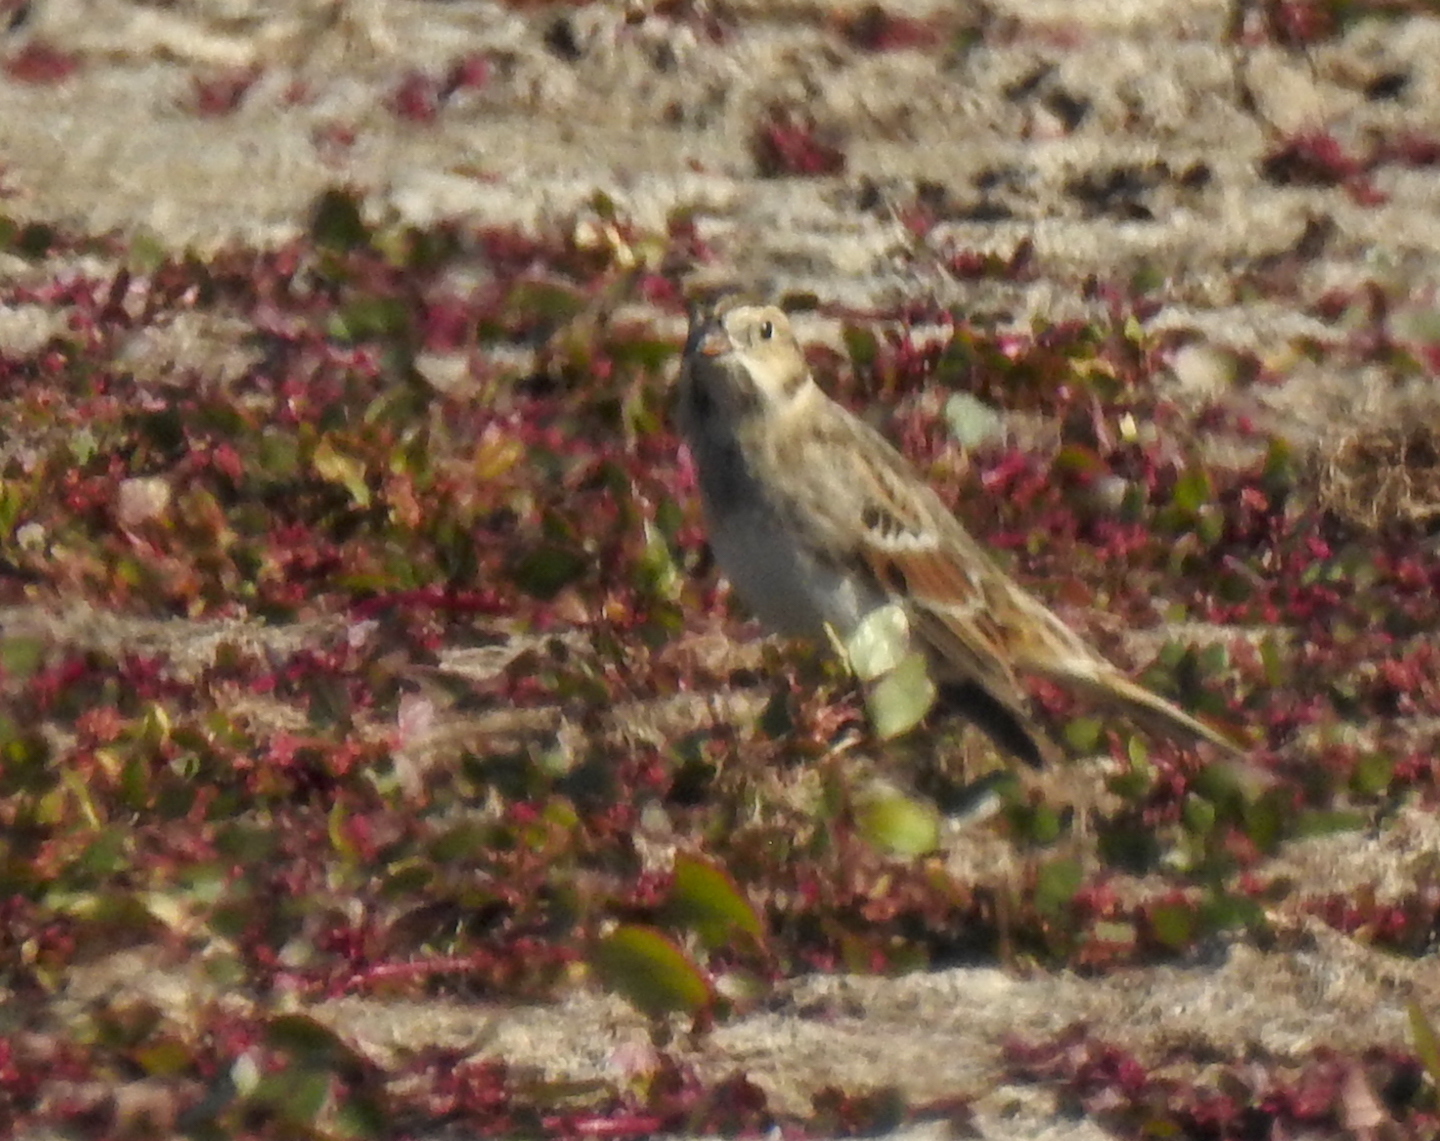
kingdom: Animalia
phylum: Chordata
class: Aves
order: Passeriformes
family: Calcariidae
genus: Calcarius
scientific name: Calcarius lapponicus
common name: Lapland longspur
